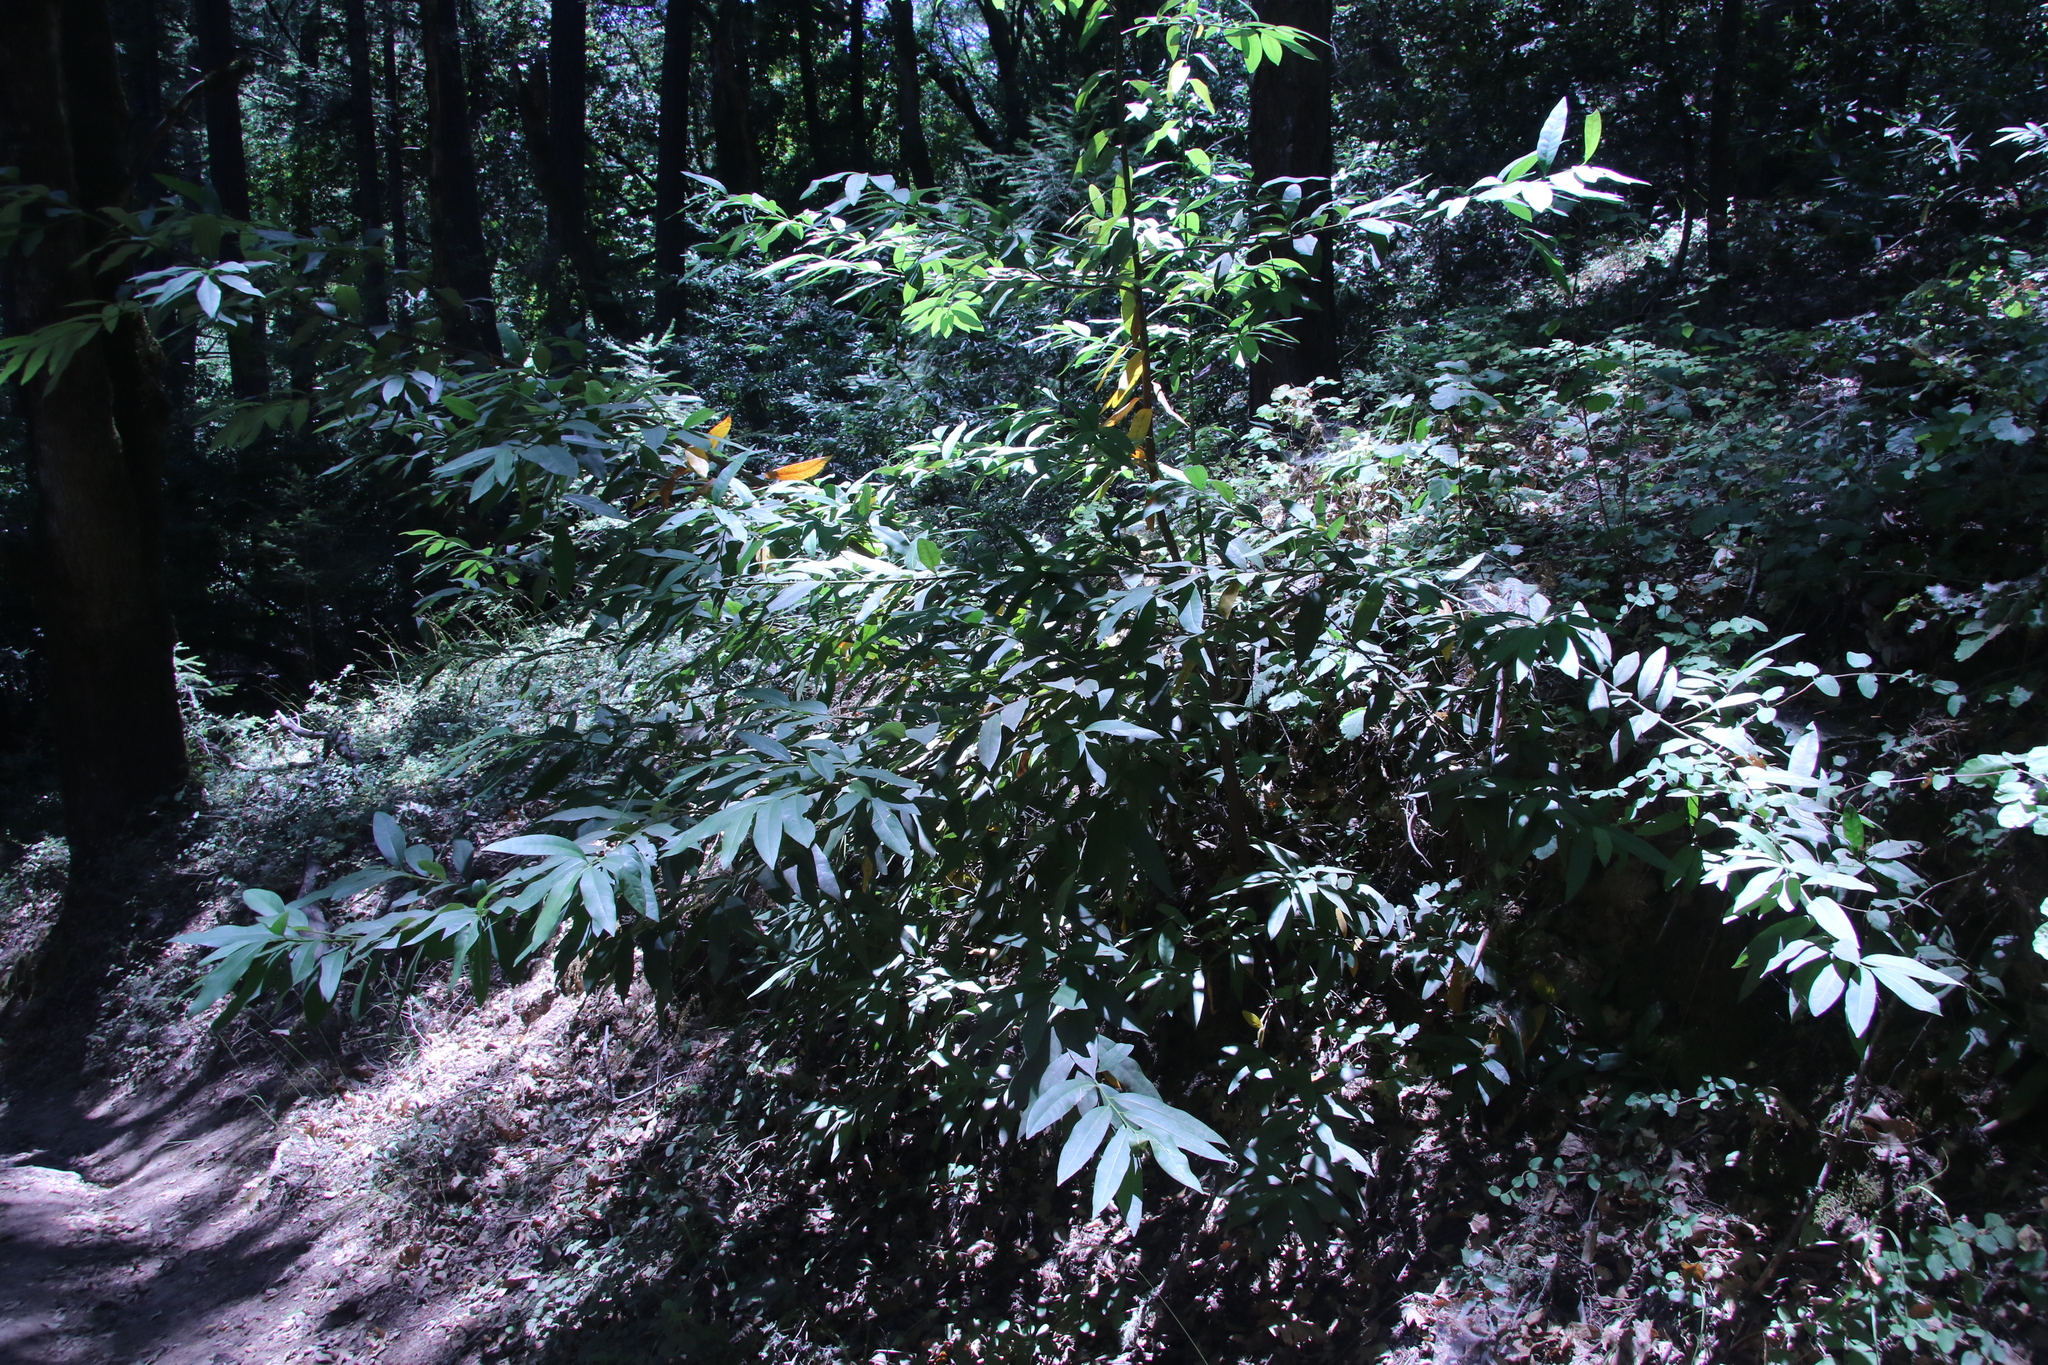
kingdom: Plantae
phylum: Tracheophyta
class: Magnoliopsida
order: Laurales
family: Lauraceae
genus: Umbellularia
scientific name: Umbellularia californica
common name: California bay
